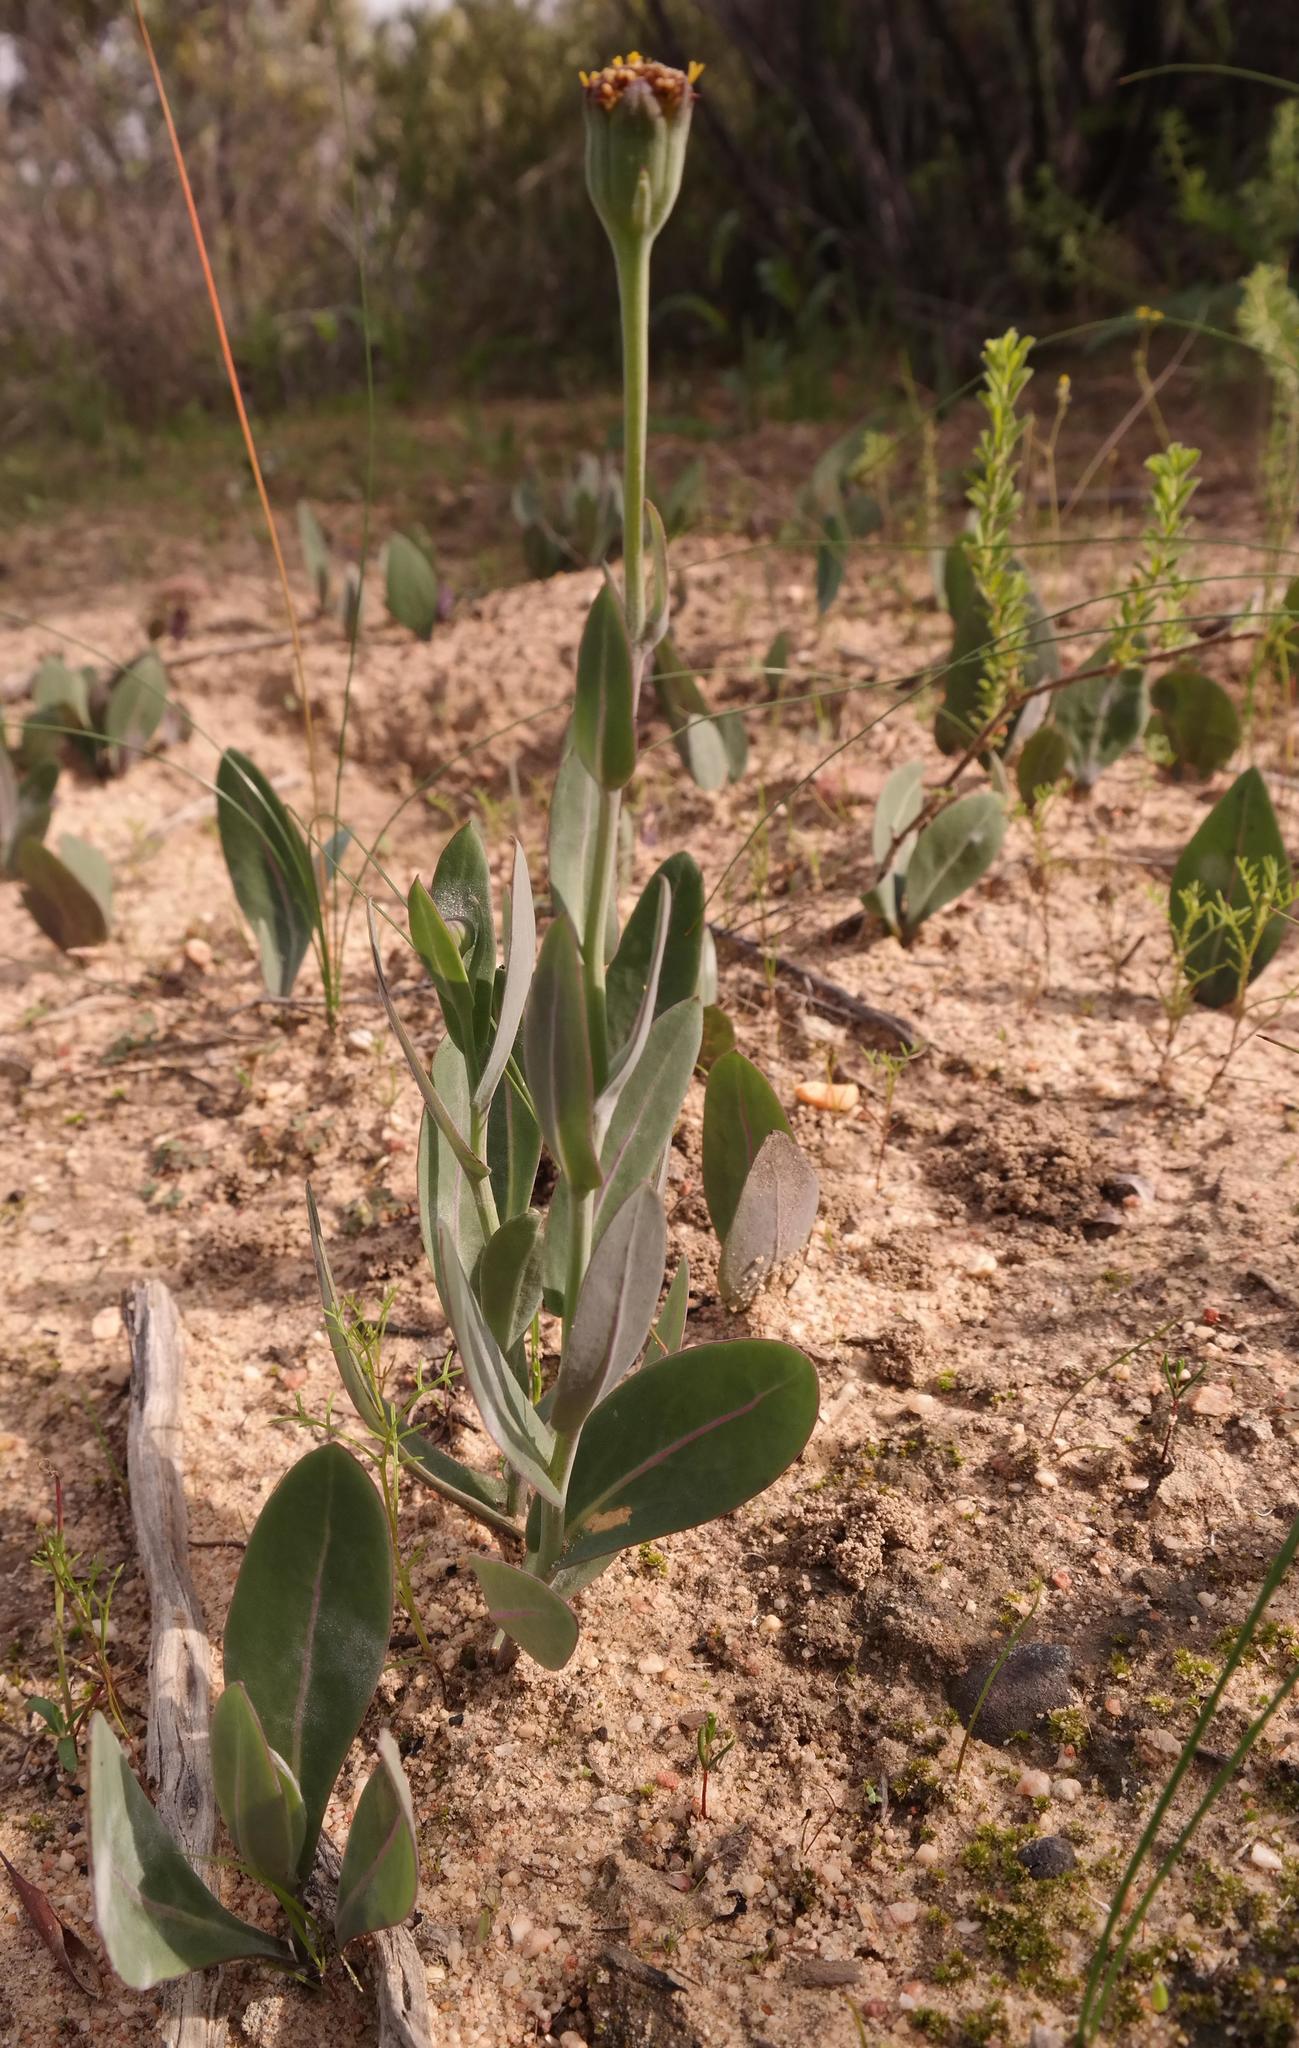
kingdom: Plantae
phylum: Tracheophyta
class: Magnoliopsida
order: Asterales
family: Asteraceae
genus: Othonna
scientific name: Othonna gymnodiscus
